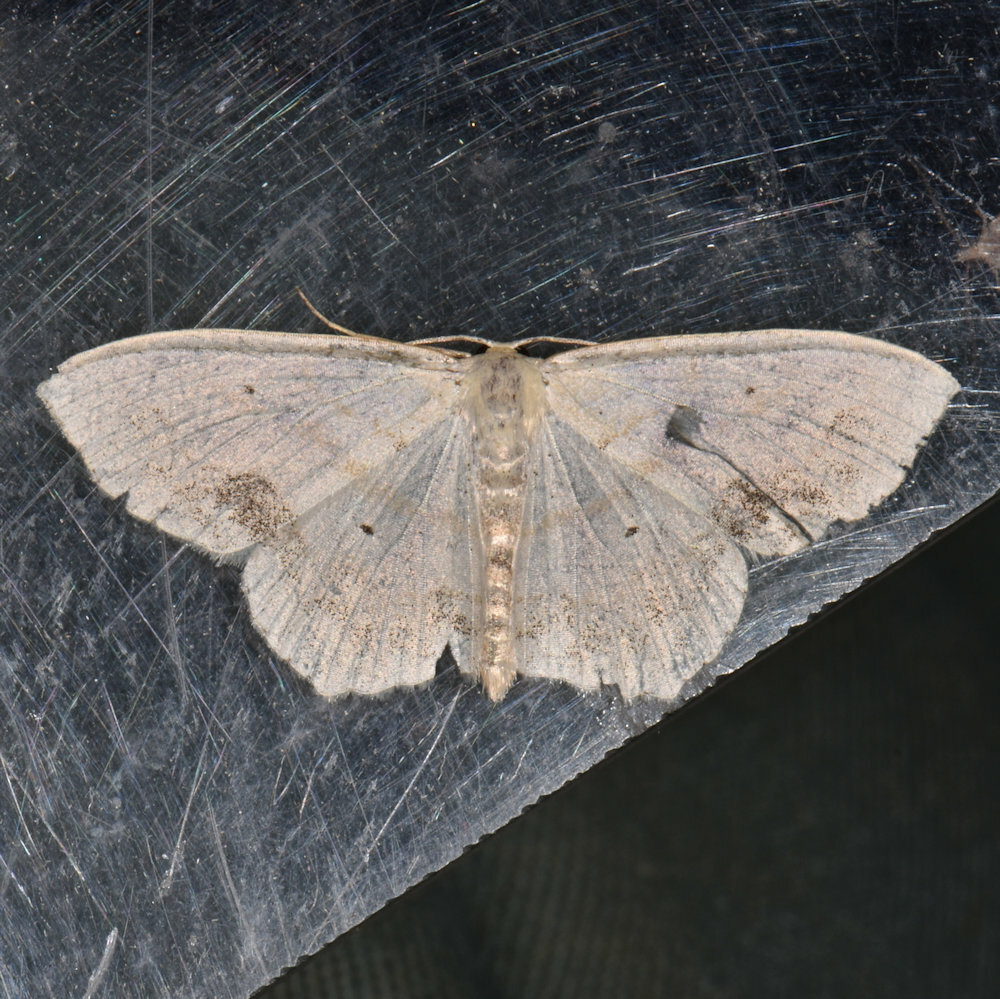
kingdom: Animalia
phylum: Arthropoda
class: Insecta
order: Lepidoptera
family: Geometridae
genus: Scopula
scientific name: Scopula limboundata
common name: Large lace border
